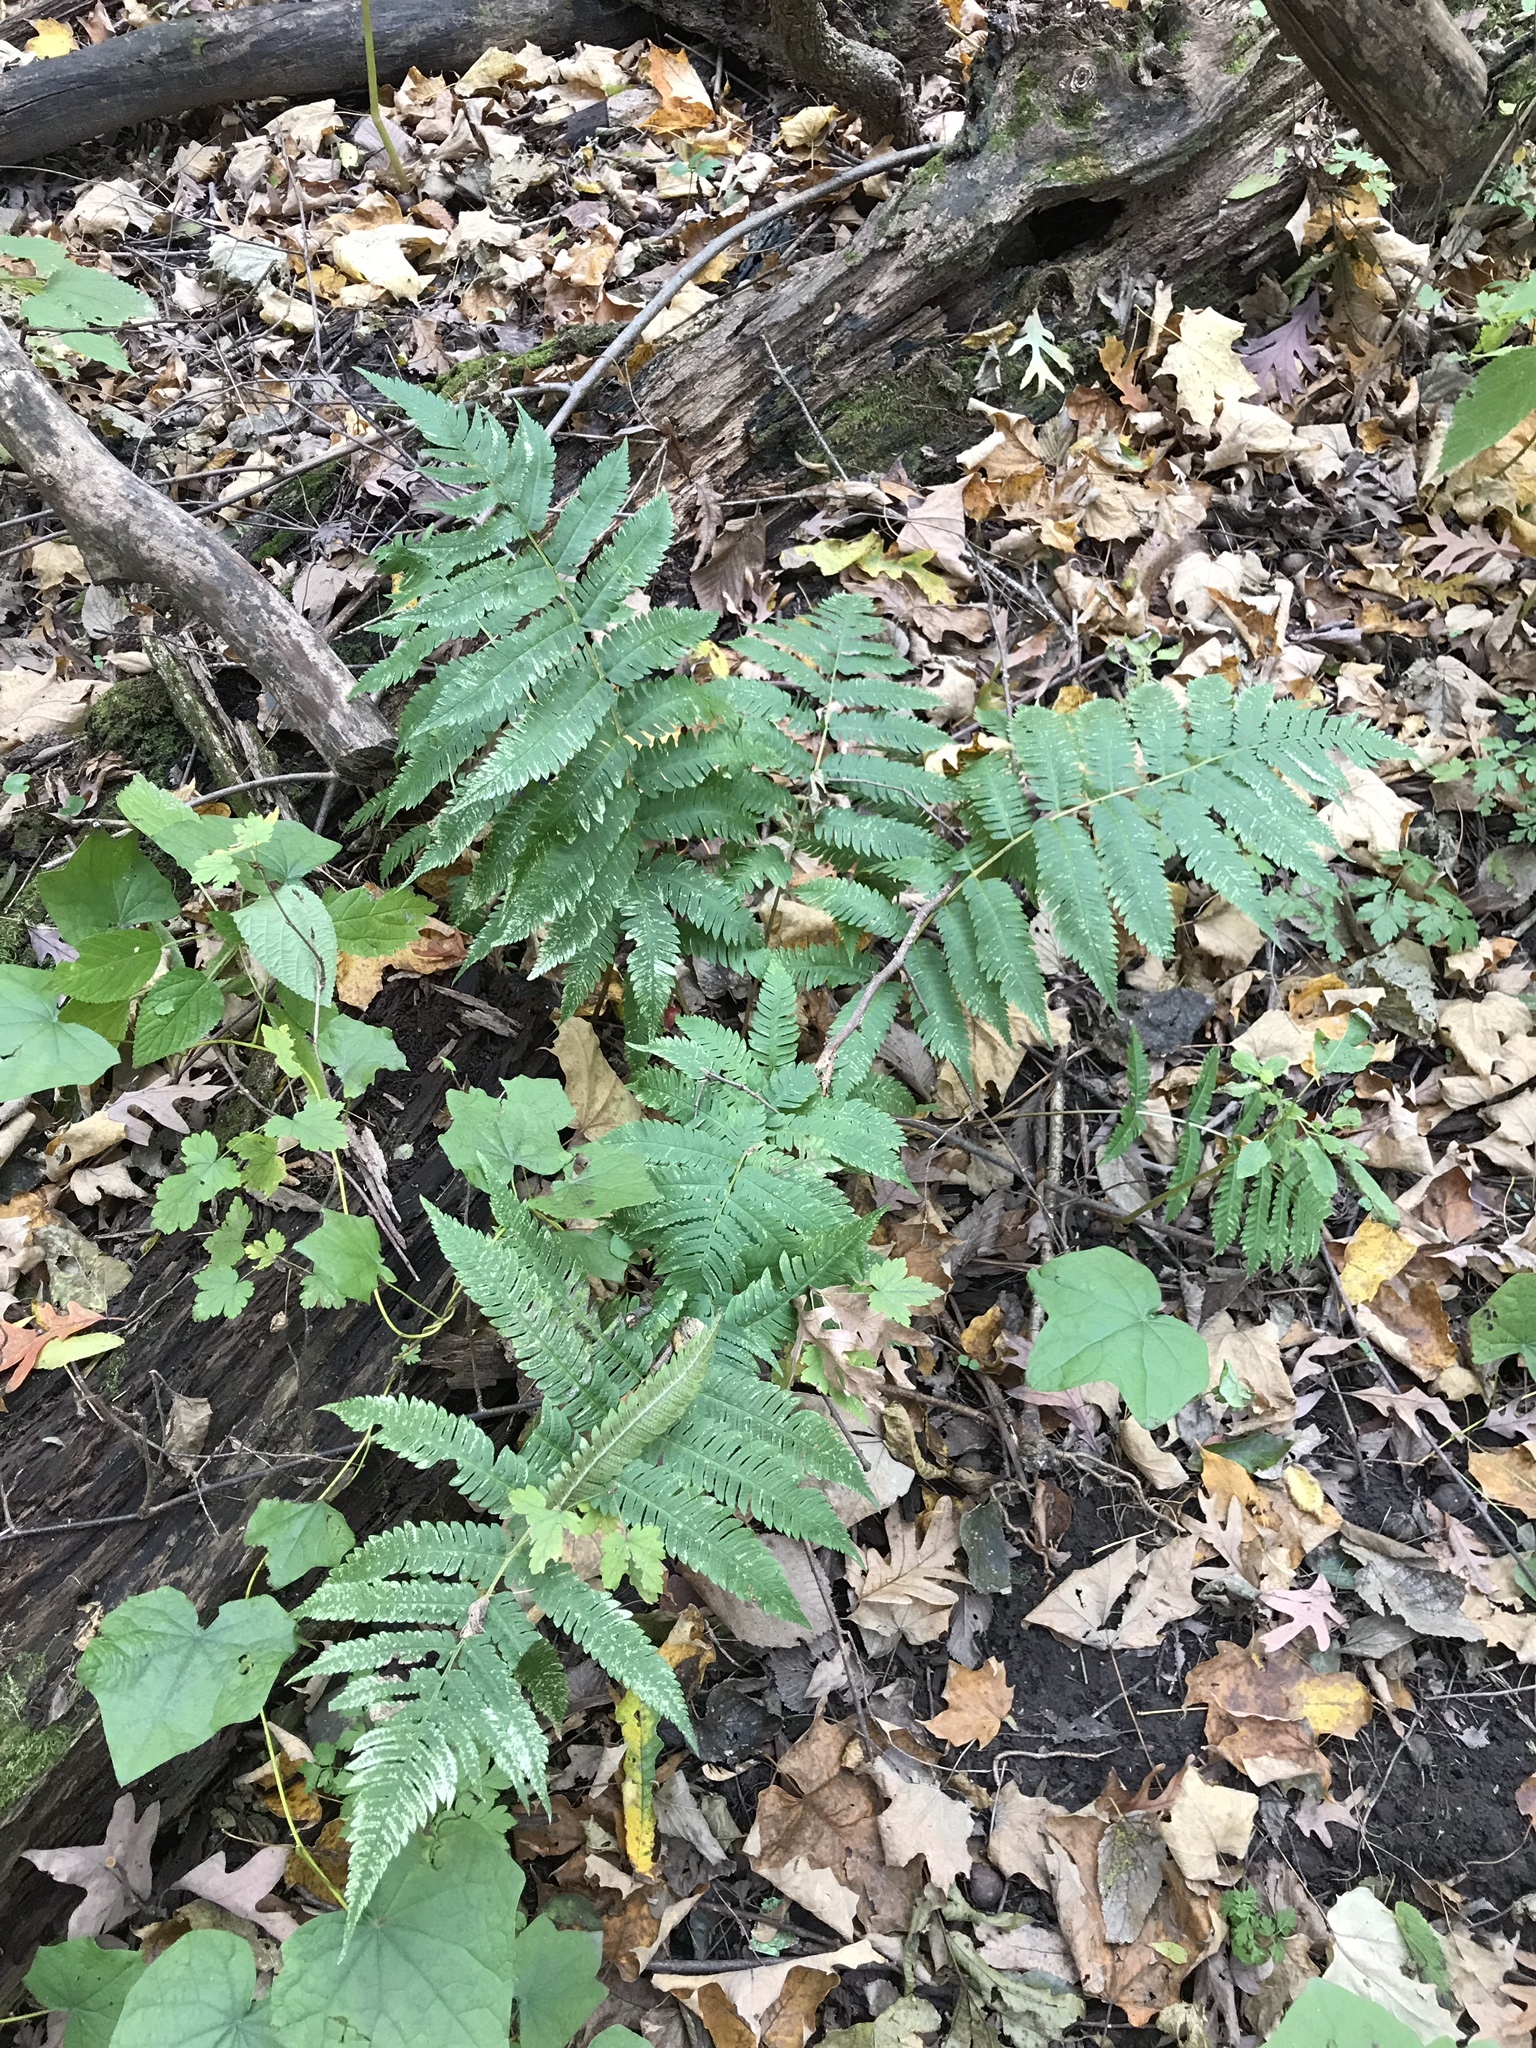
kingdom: Plantae
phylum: Tracheophyta
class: Polypodiopsida
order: Polypodiales
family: Dryopteridaceae
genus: Dryopteris
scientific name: Dryopteris goldieana
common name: Goldie's fern
